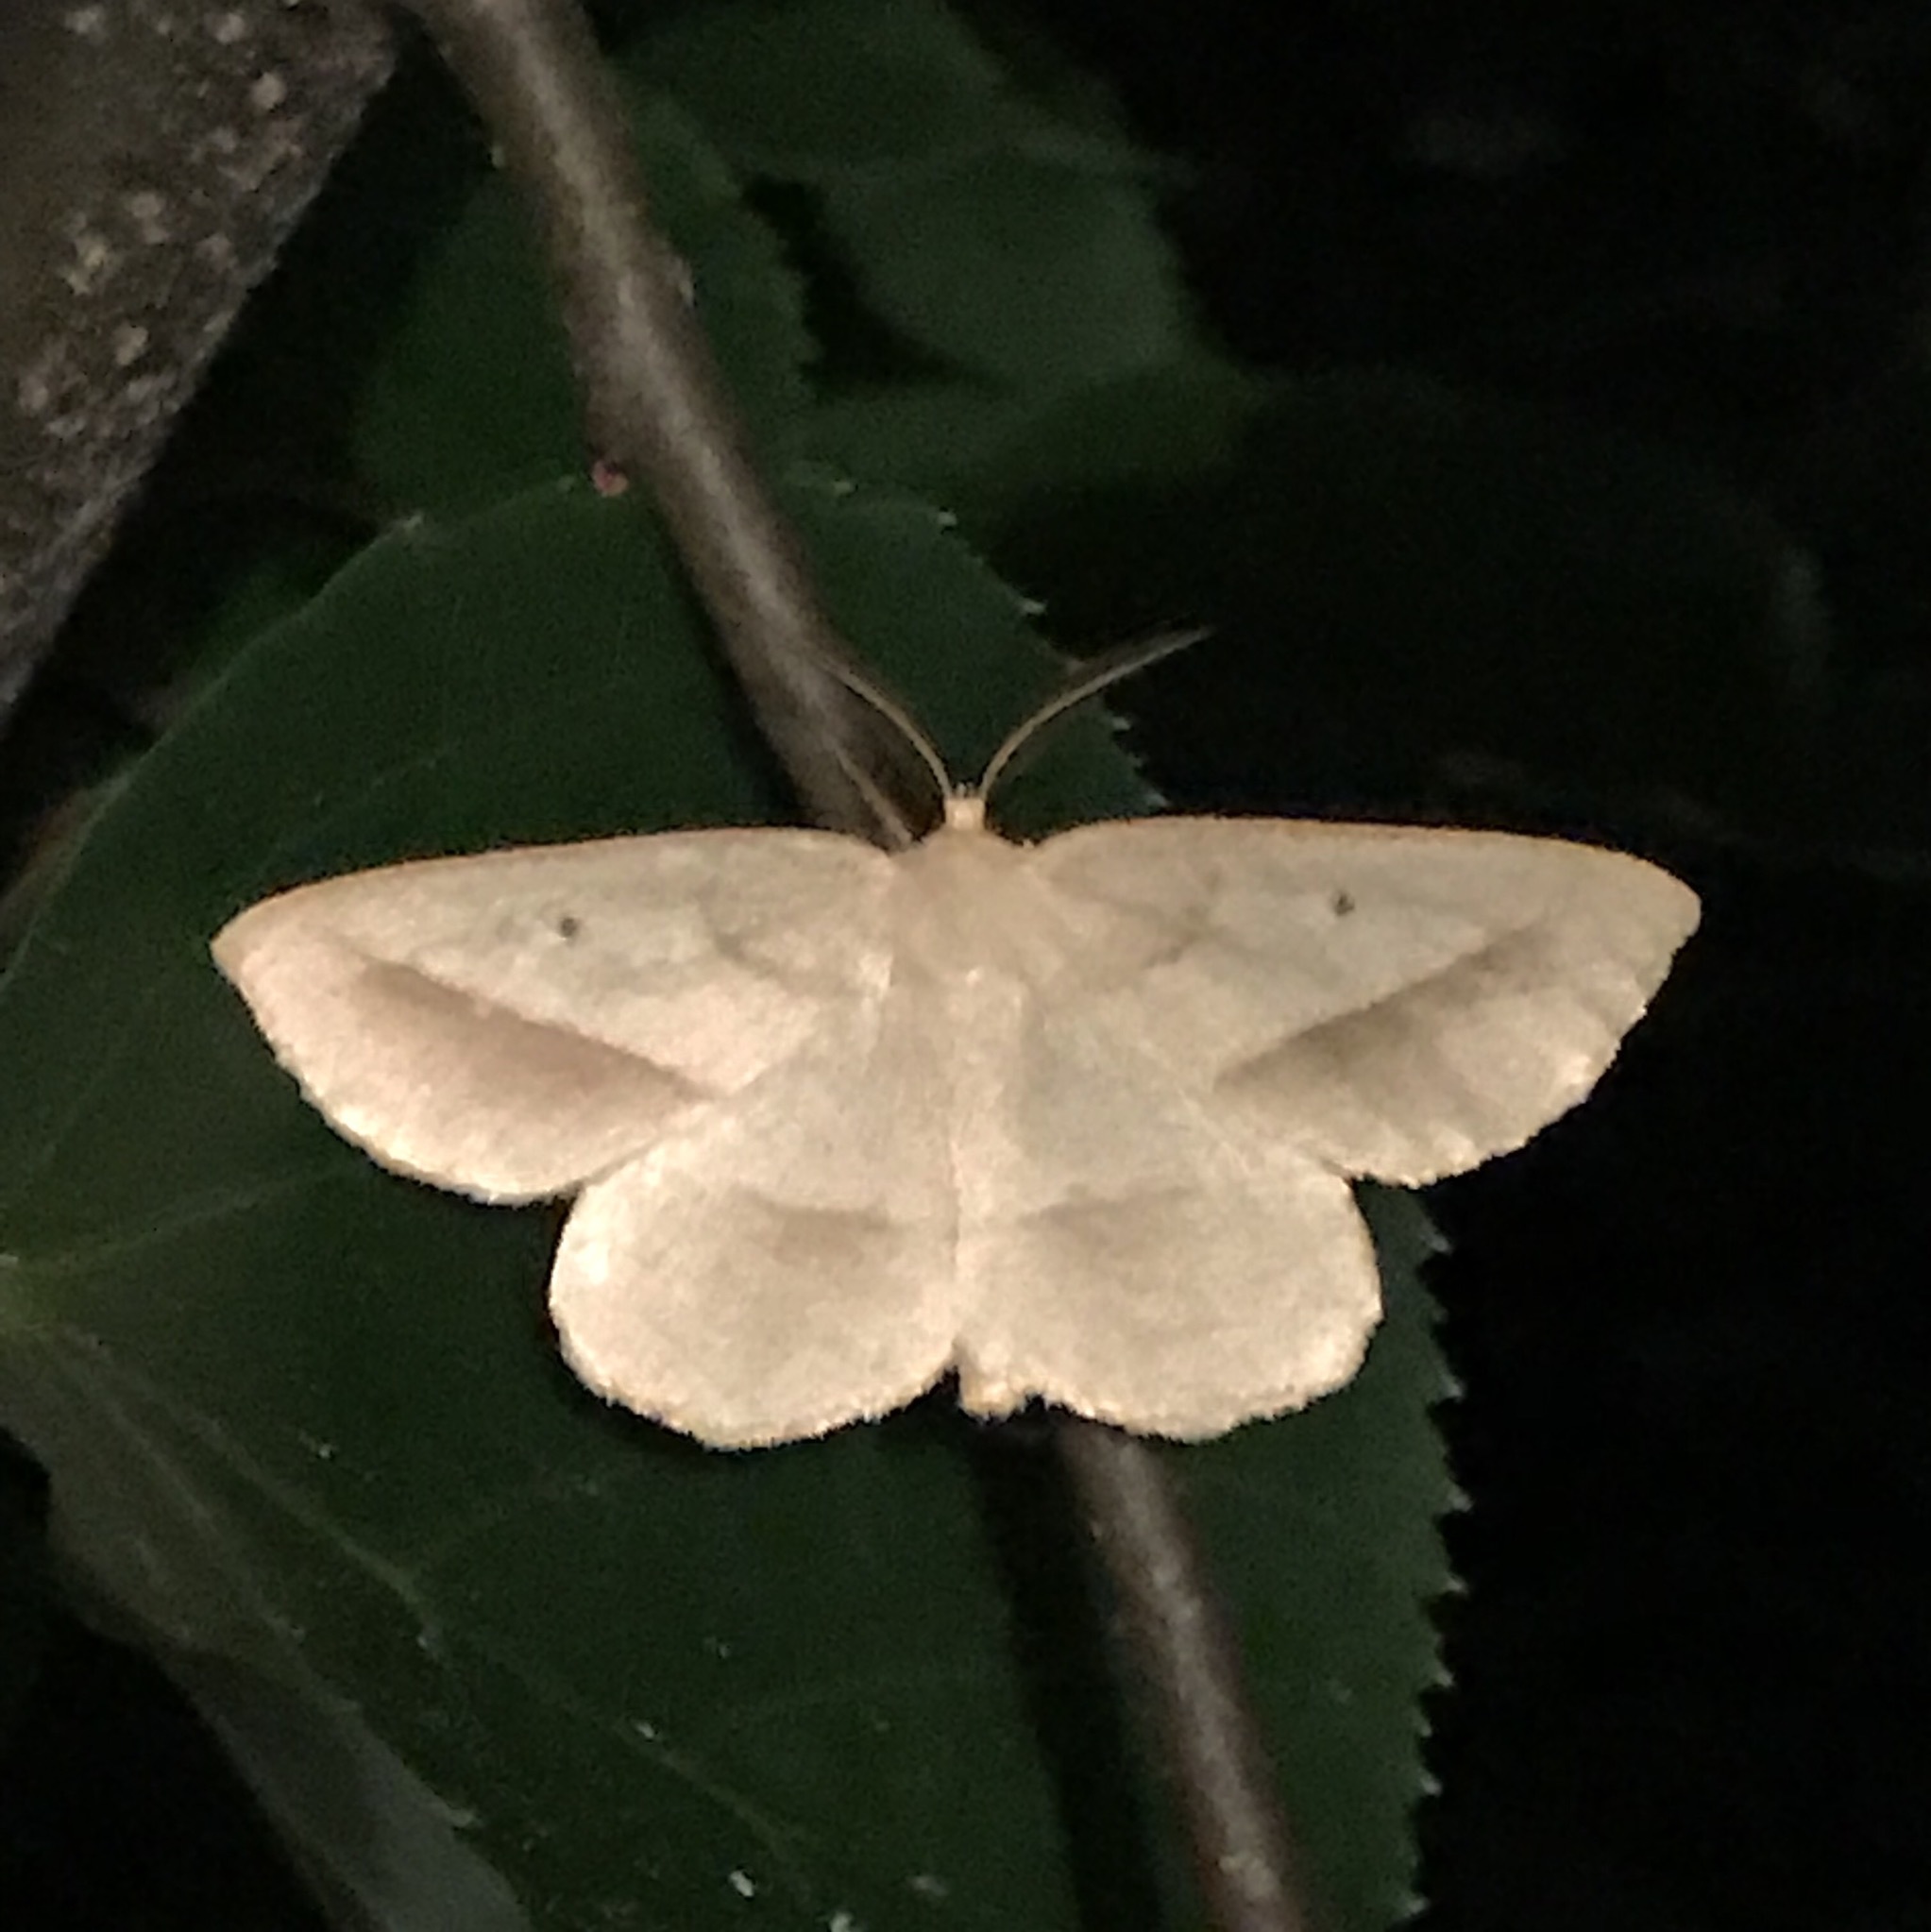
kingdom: Animalia
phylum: Arthropoda
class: Insecta
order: Lepidoptera
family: Geometridae
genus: Euchlaena
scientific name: Euchlaena irraria
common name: Least-marked euchlaena
